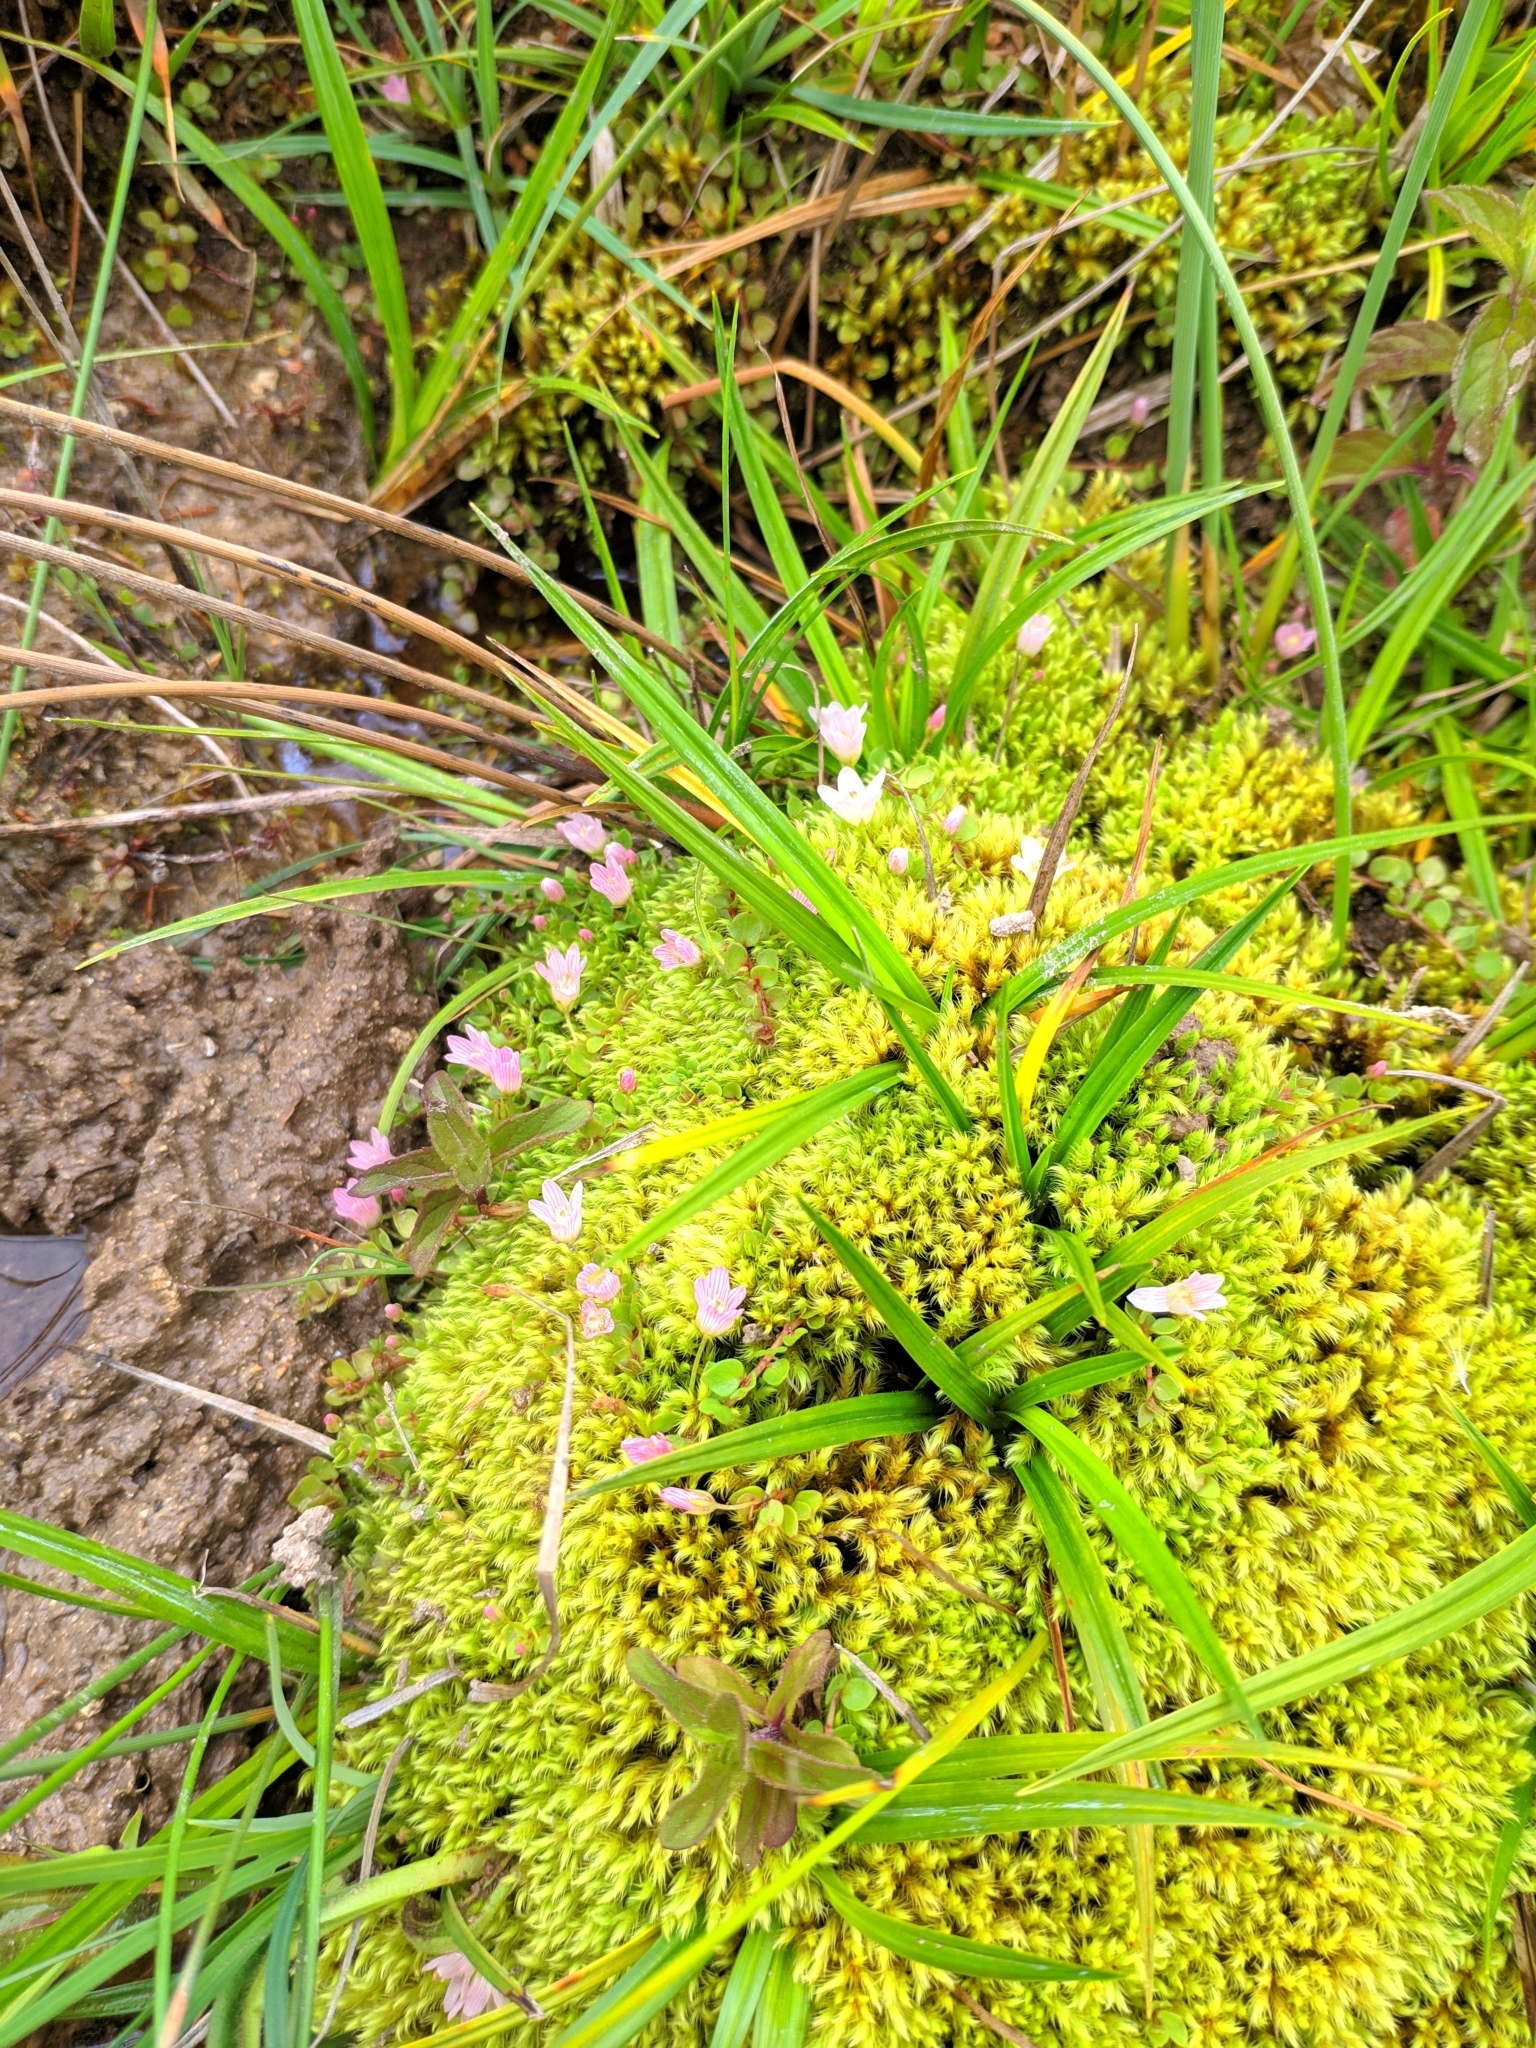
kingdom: Plantae
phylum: Tracheophyta
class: Magnoliopsida
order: Ericales
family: Primulaceae
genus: Lysimachia
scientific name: Lysimachia tenella
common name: European bog pimpernel
